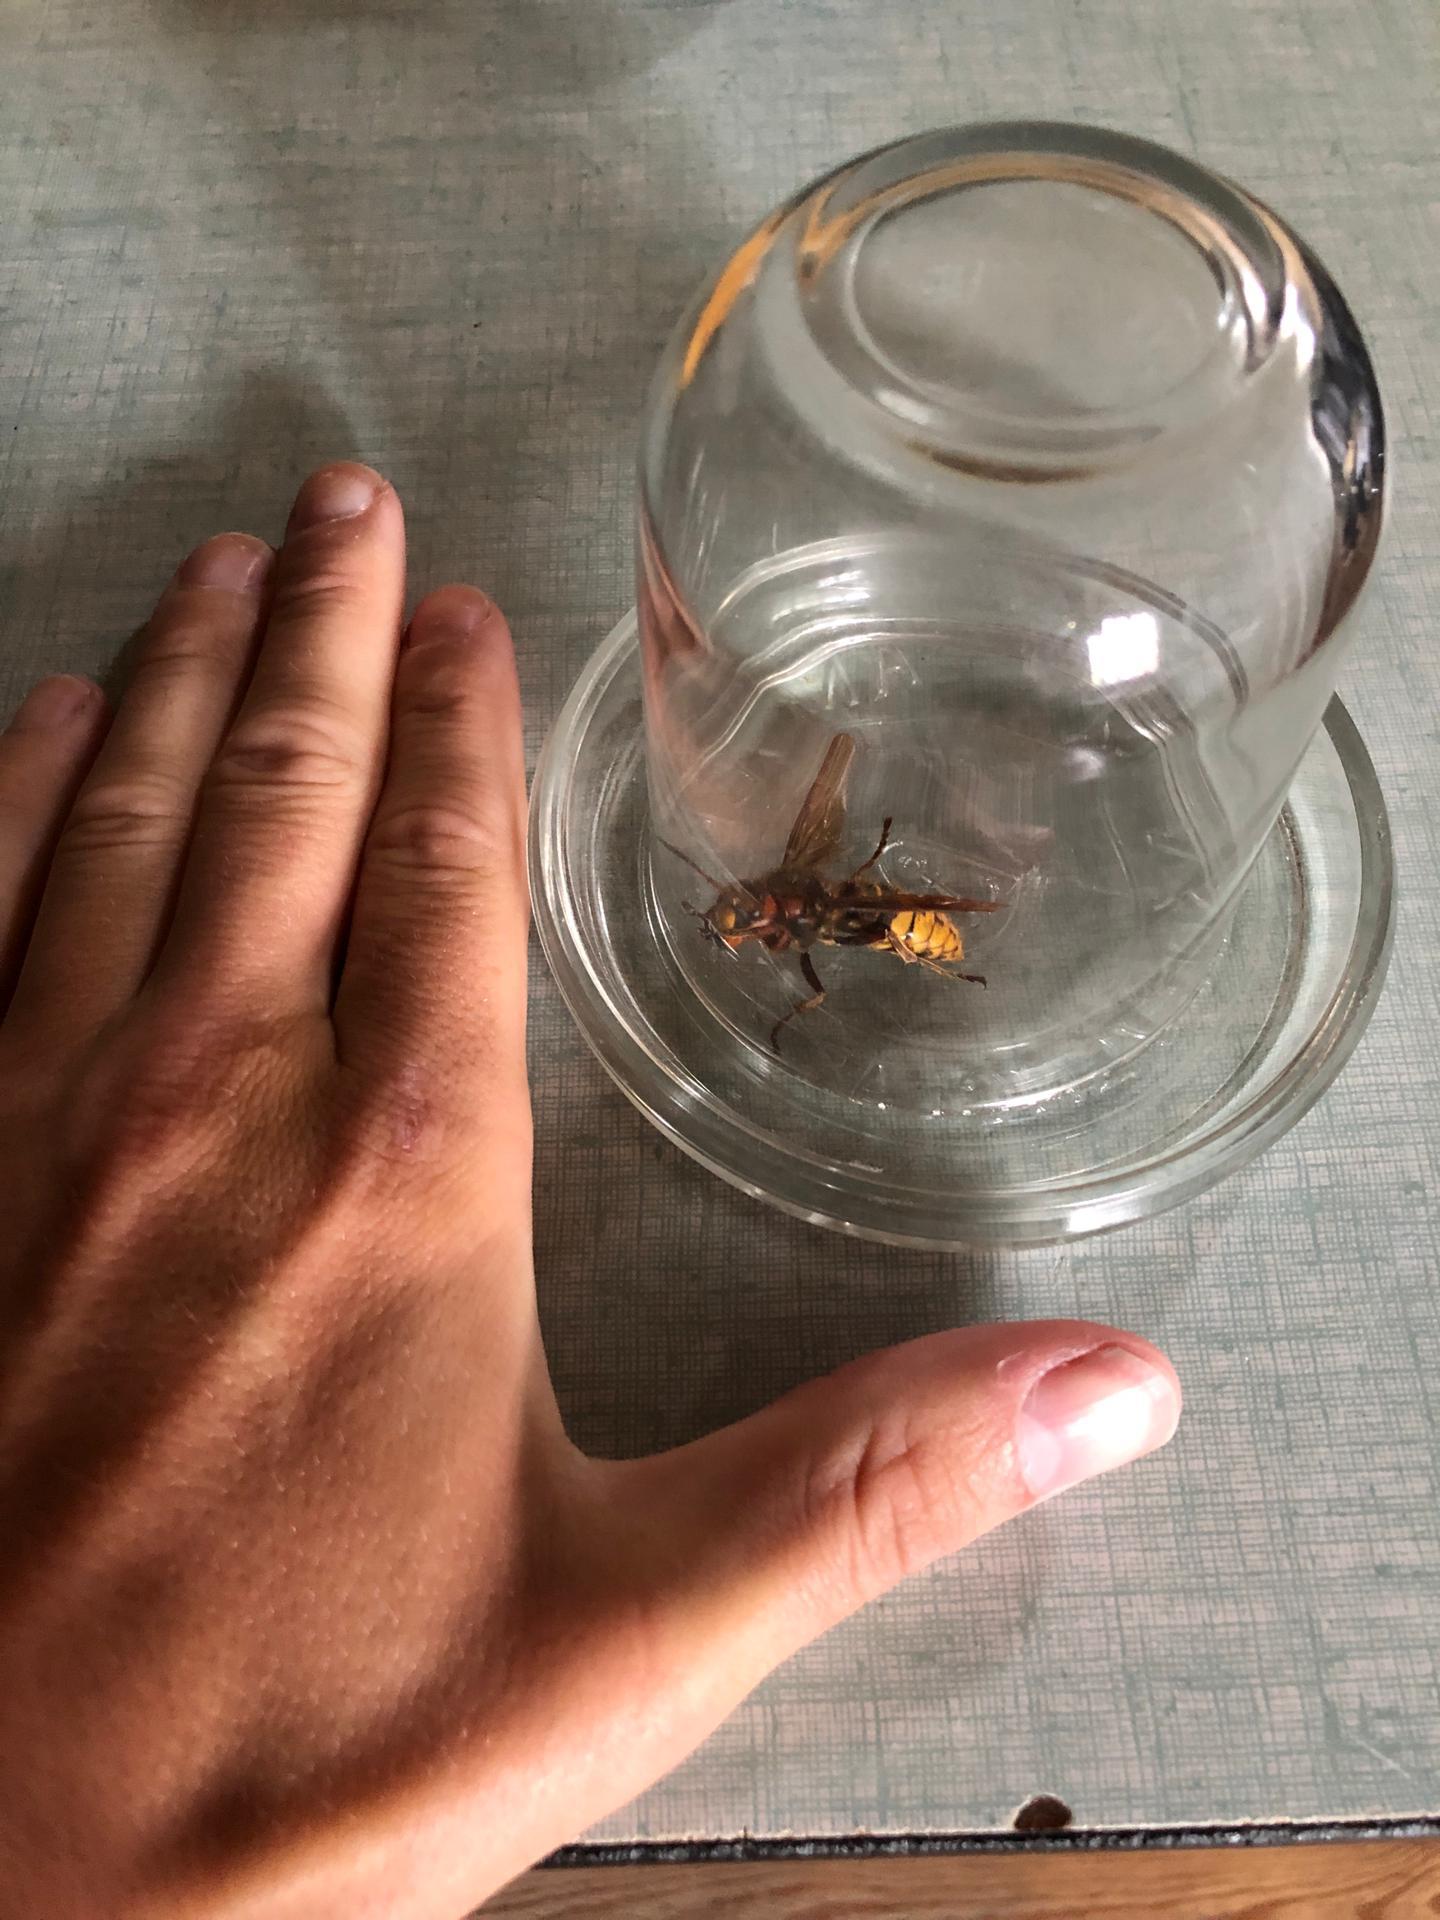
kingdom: Animalia
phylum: Arthropoda
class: Insecta
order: Hymenoptera
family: Vespidae
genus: Vespa
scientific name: Vespa crabro
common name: Hornet
